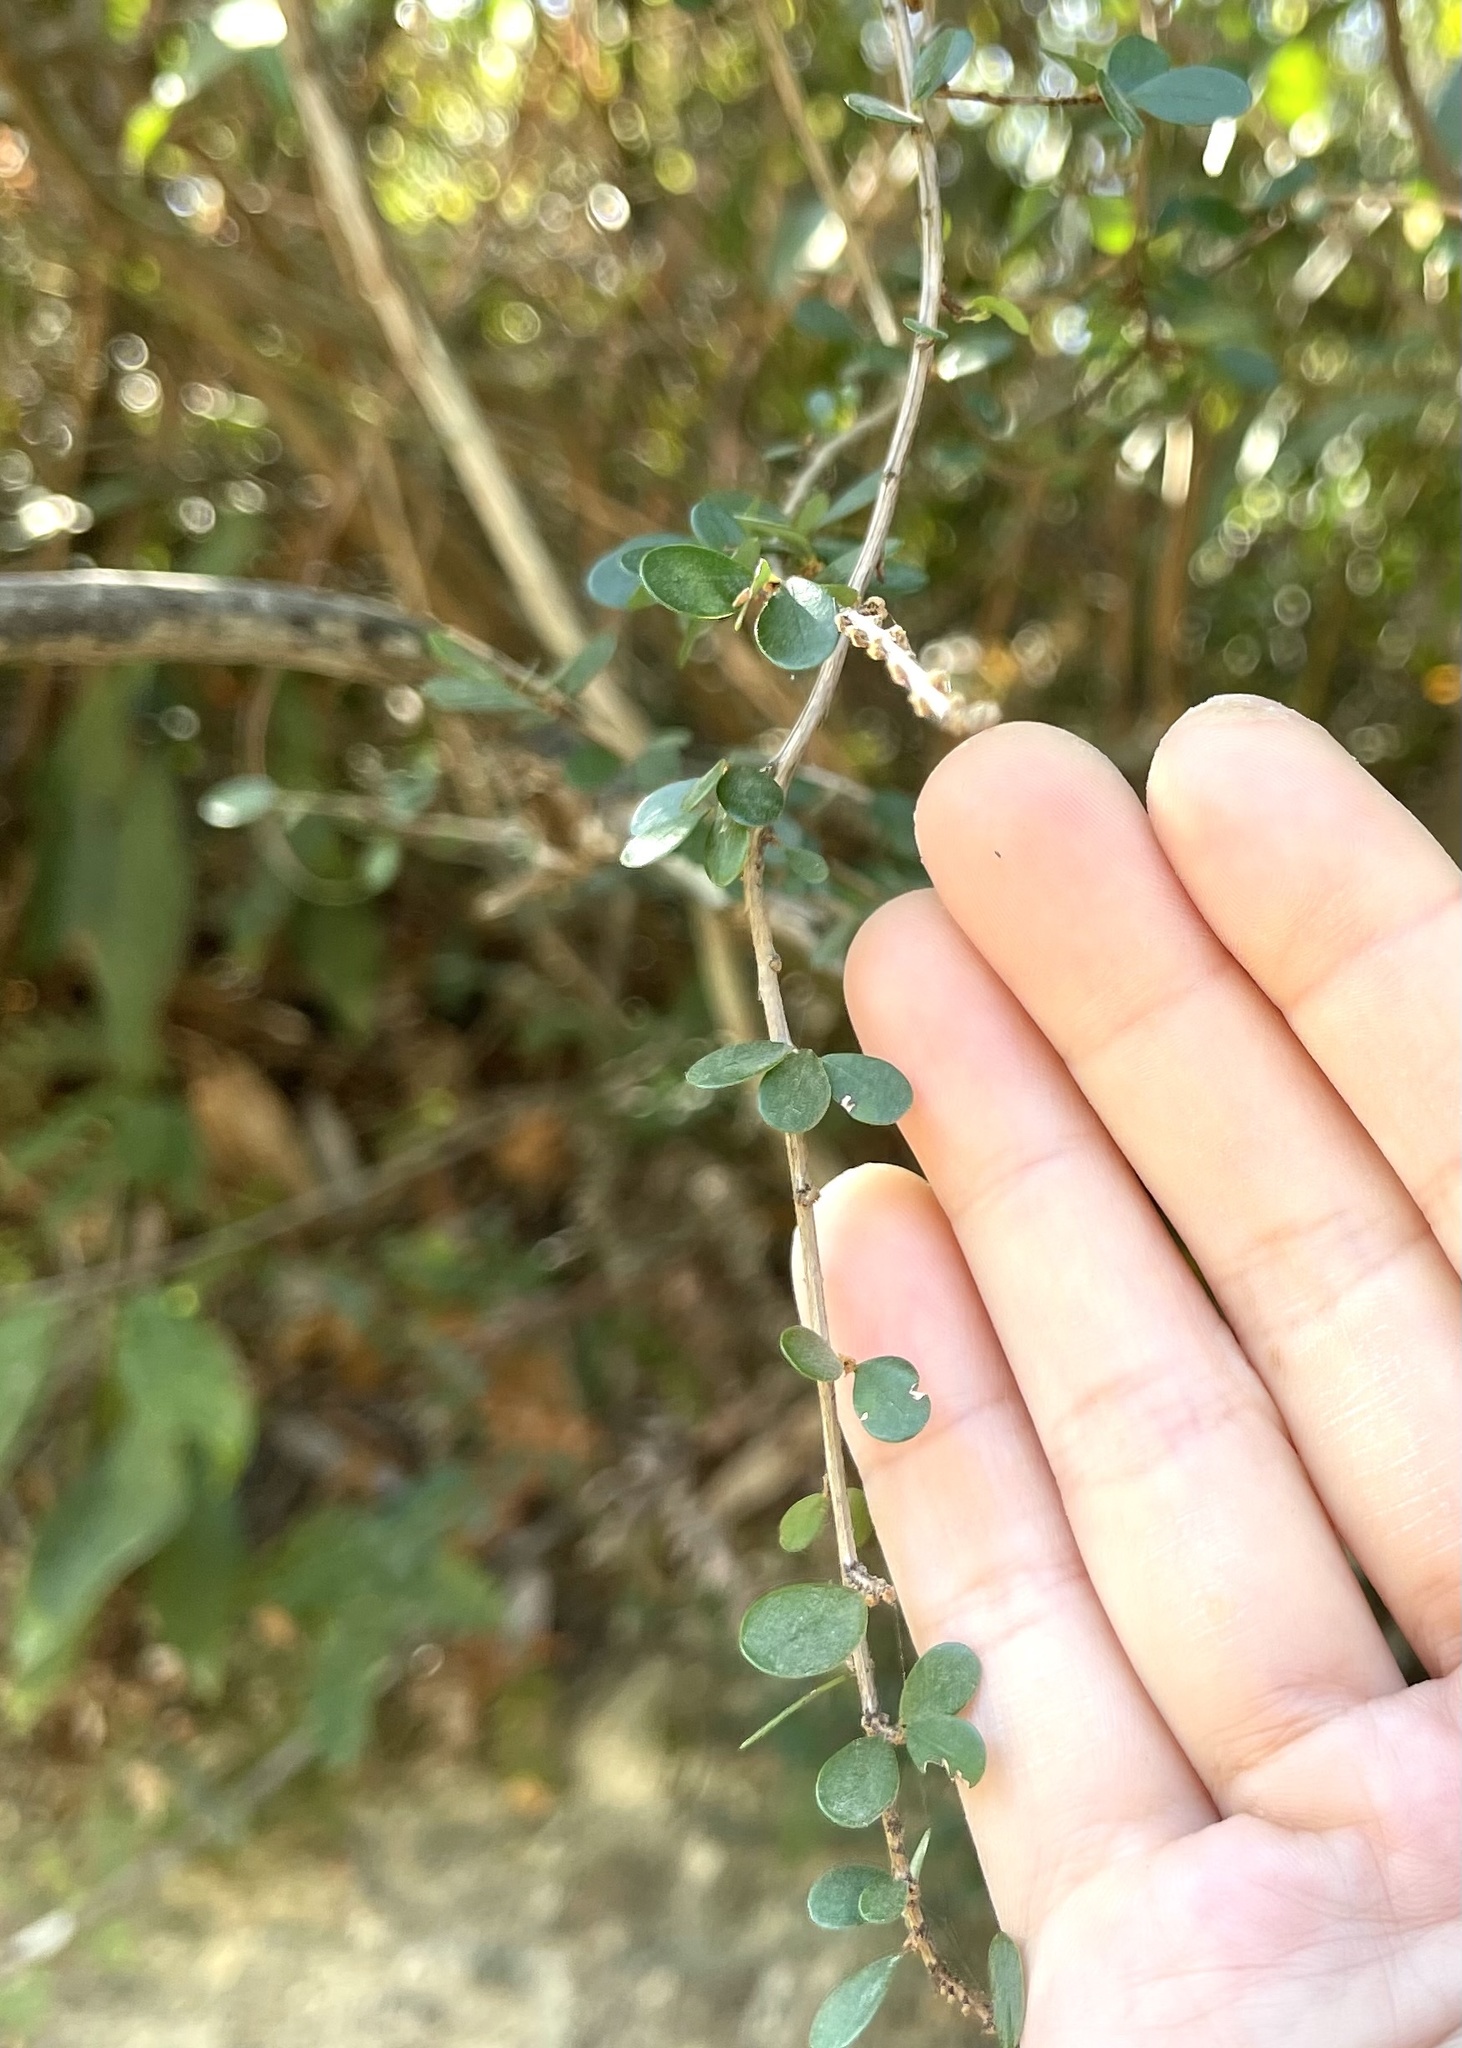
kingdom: Plantae
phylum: Tracheophyta
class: Magnoliopsida
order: Malpighiales
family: Phyllanthaceae
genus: Phyllanthus
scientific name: Phyllanthus cochinchinensis
